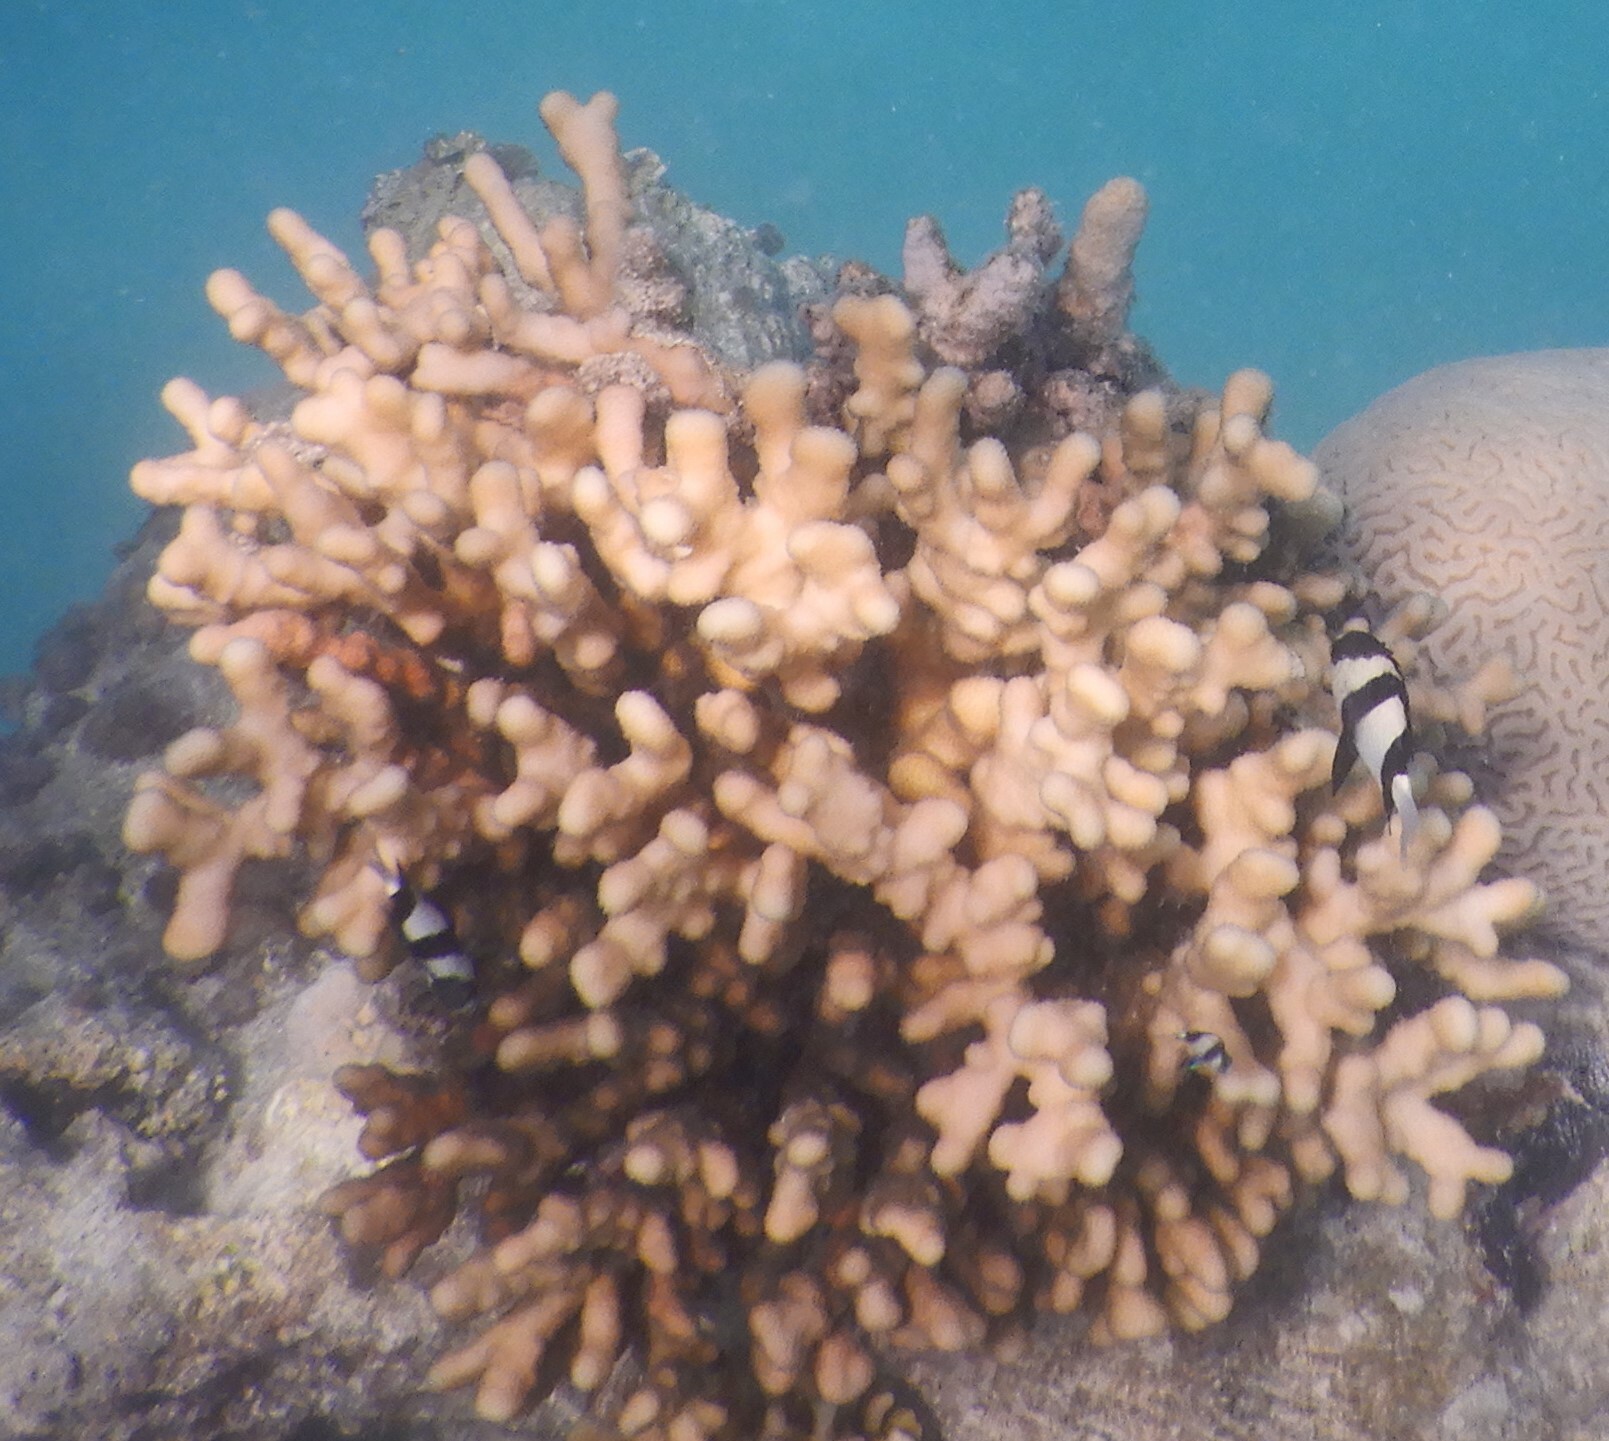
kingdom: Animalia
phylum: Cnidaria
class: Anthozoa
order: Scleractinia
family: Pocilloporidae
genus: Stylophora
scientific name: Stylophora pistillata
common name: Hood coral
